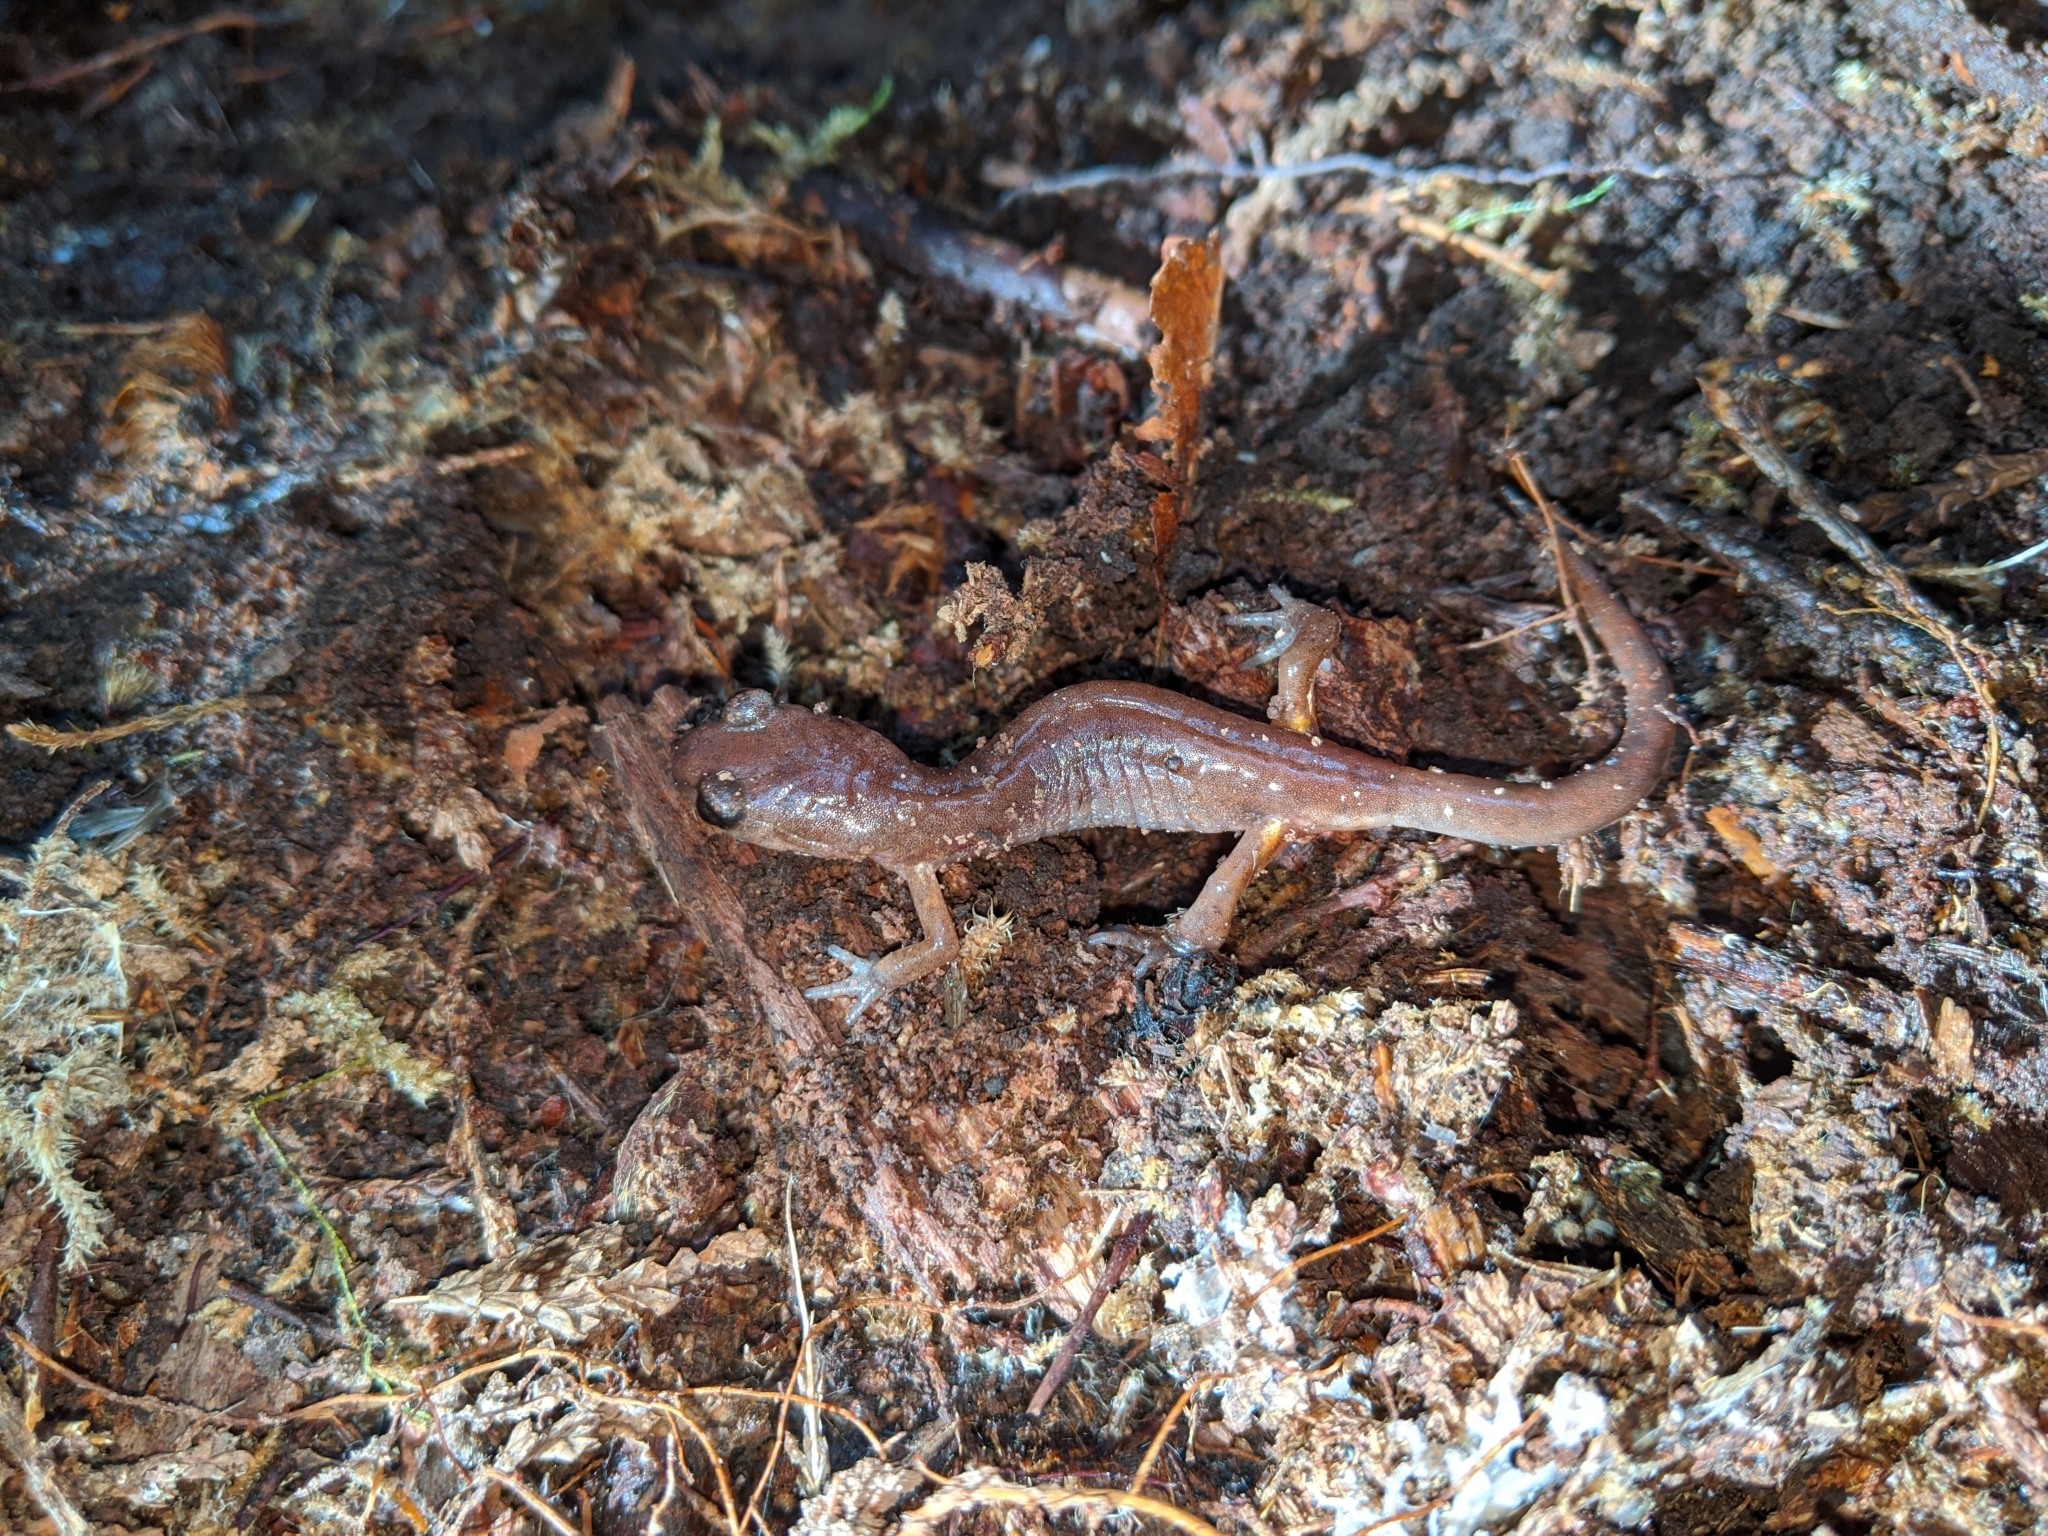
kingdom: Animalia
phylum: Chordata
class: Amphibia
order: Caudata
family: Plethodontidae
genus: Ensatina
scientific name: Ensatina eschscholtzii
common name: Ensatina
